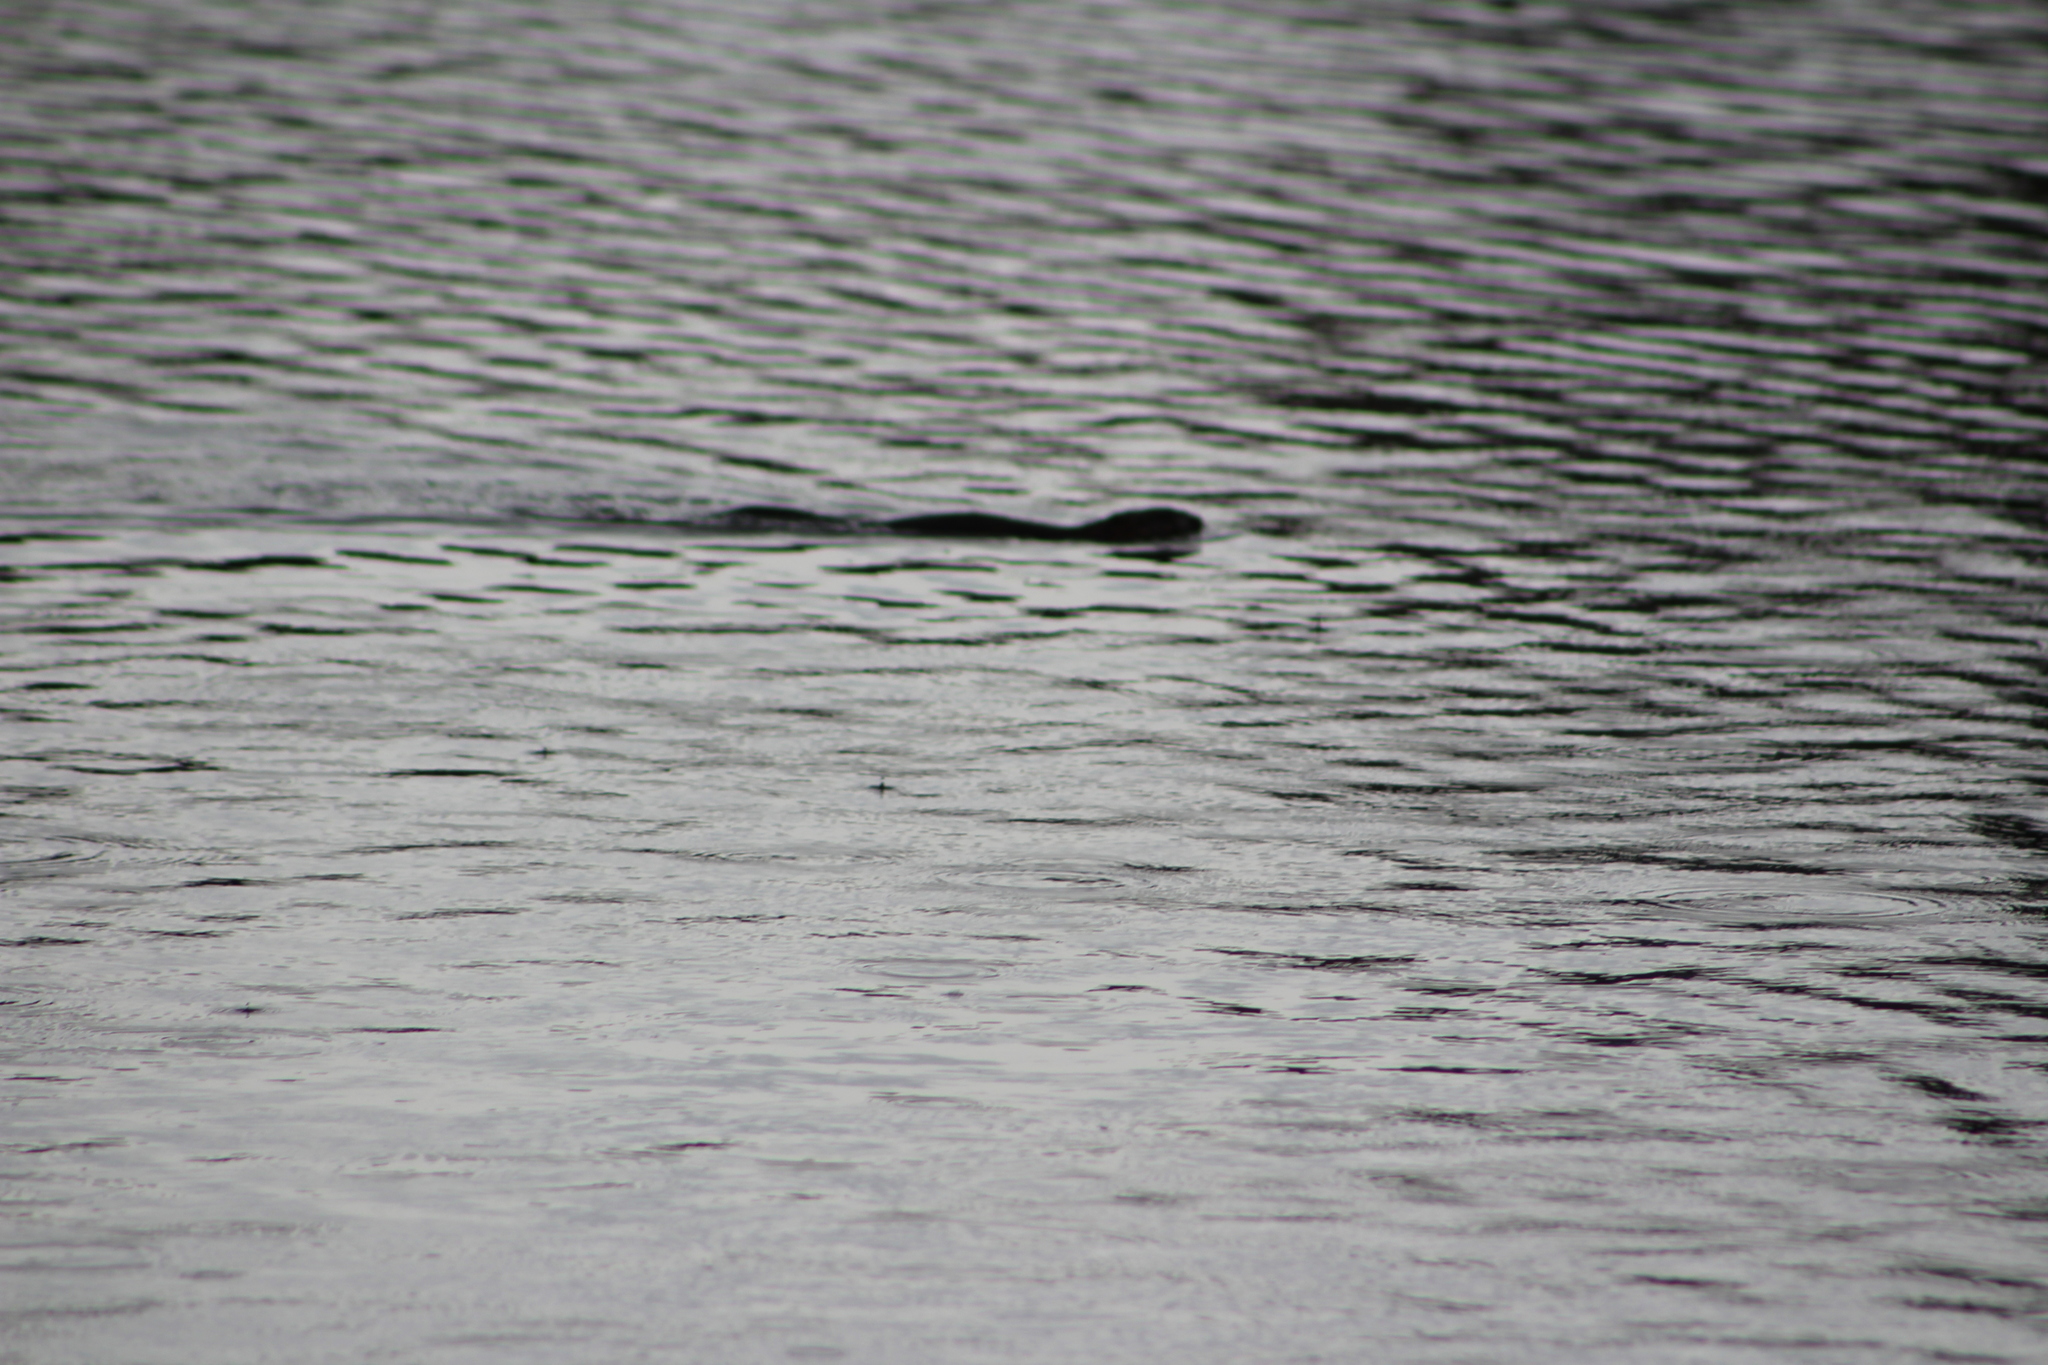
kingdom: Animalia
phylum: Chordata
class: Mammalia
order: Rodentia
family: Cricetidae
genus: Ondatra
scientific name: Ondatra zibethicus
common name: Muskrat
